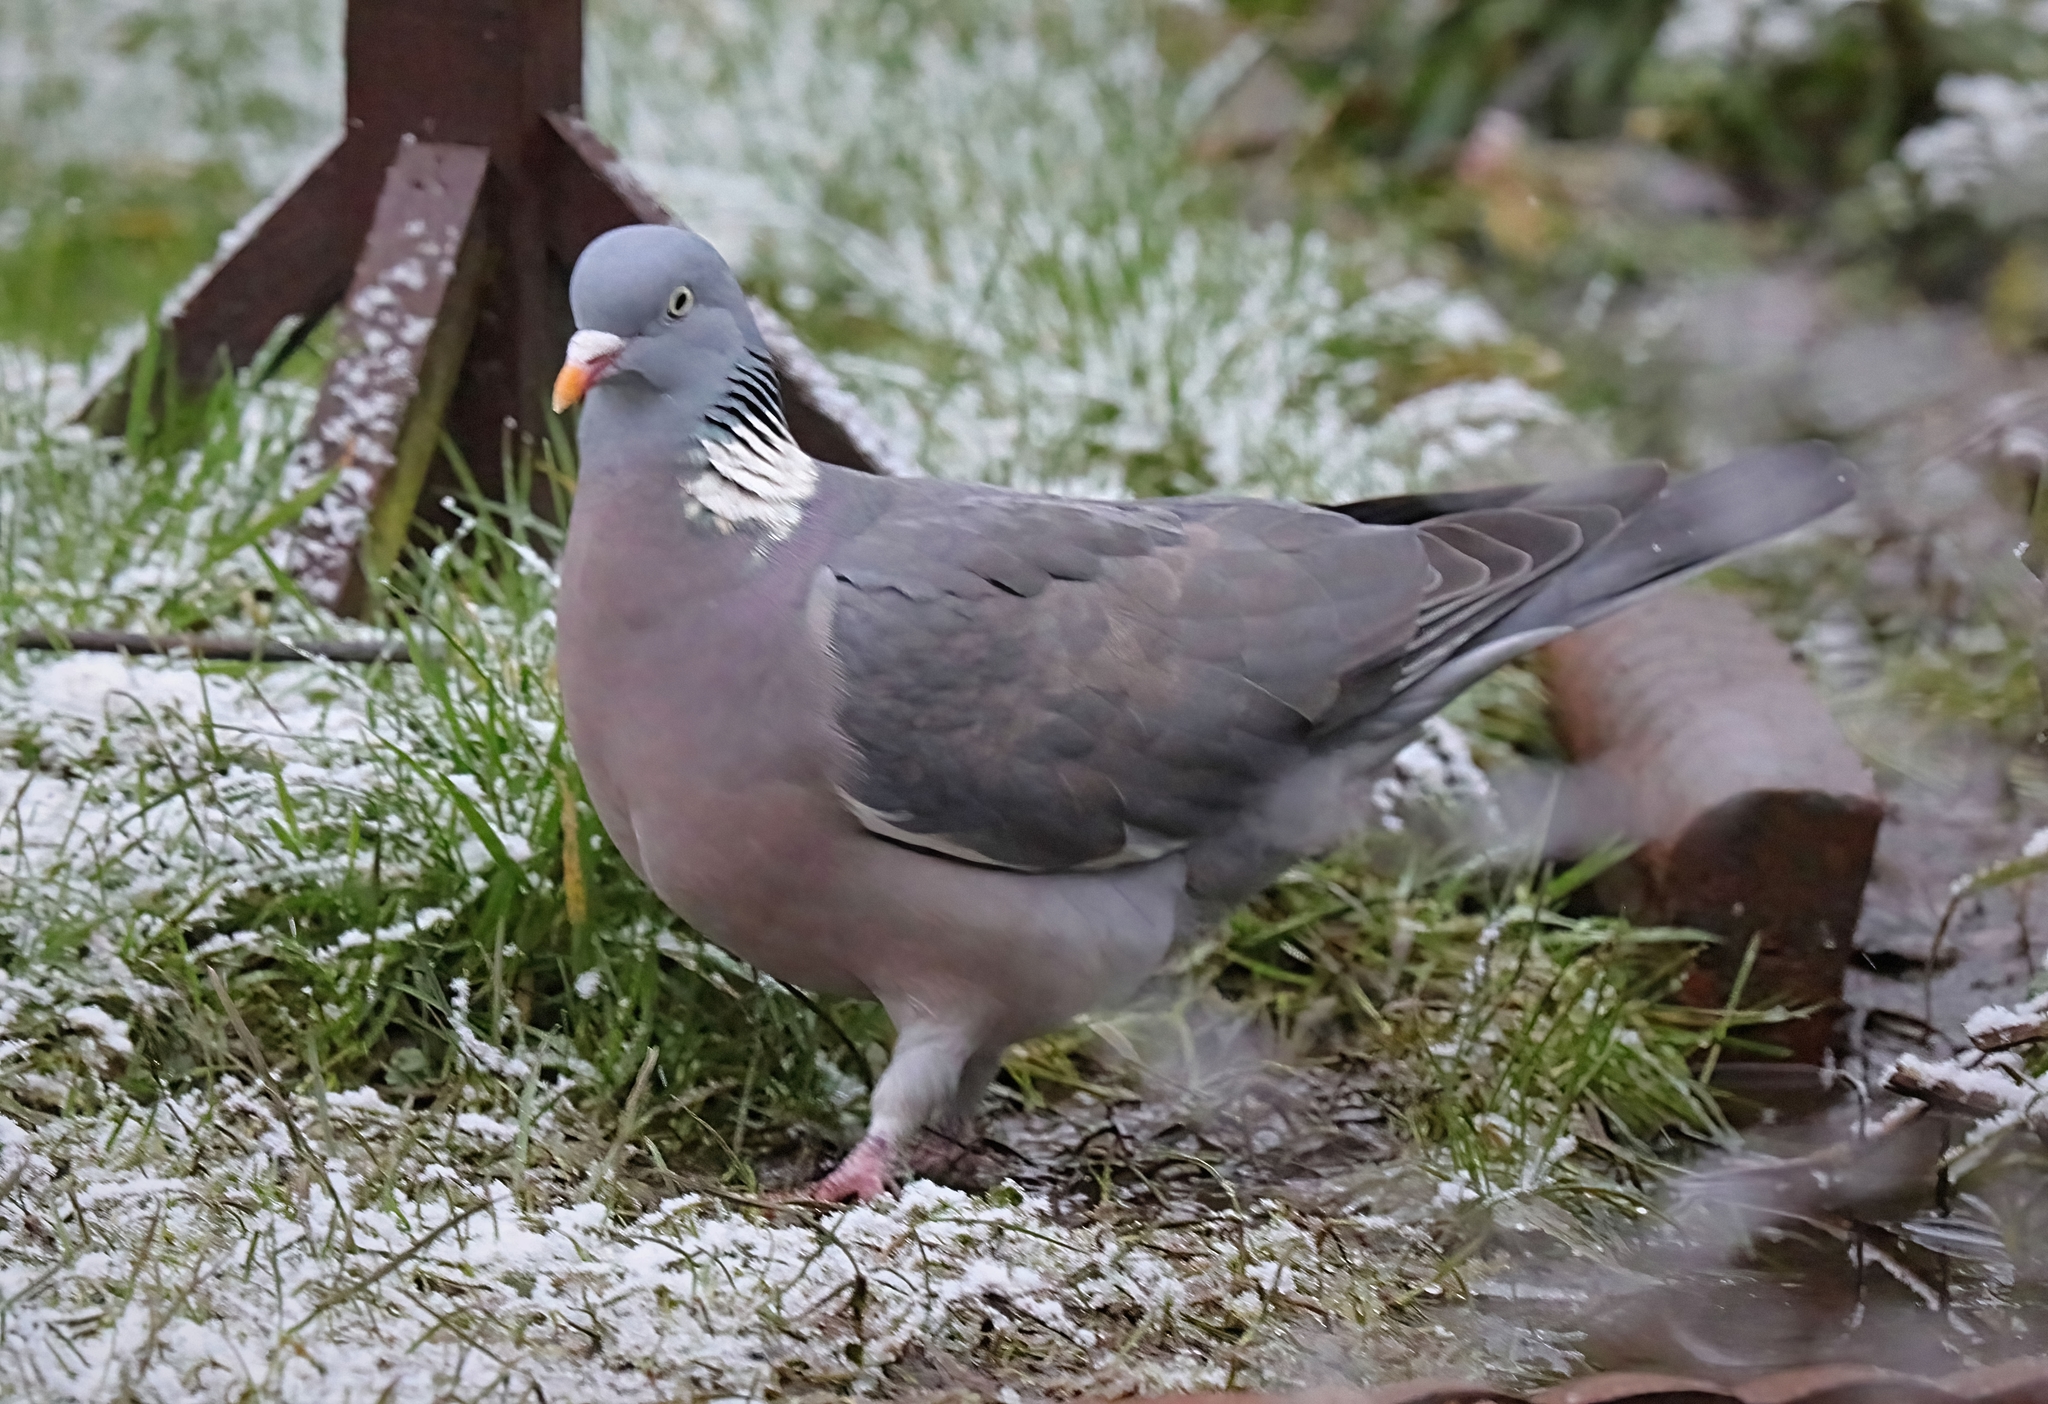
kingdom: Animalia
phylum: Chordata
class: Aves
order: Columbiformes
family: Columbidae
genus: Columba
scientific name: Columba palumbus
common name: Common wood pigeon
